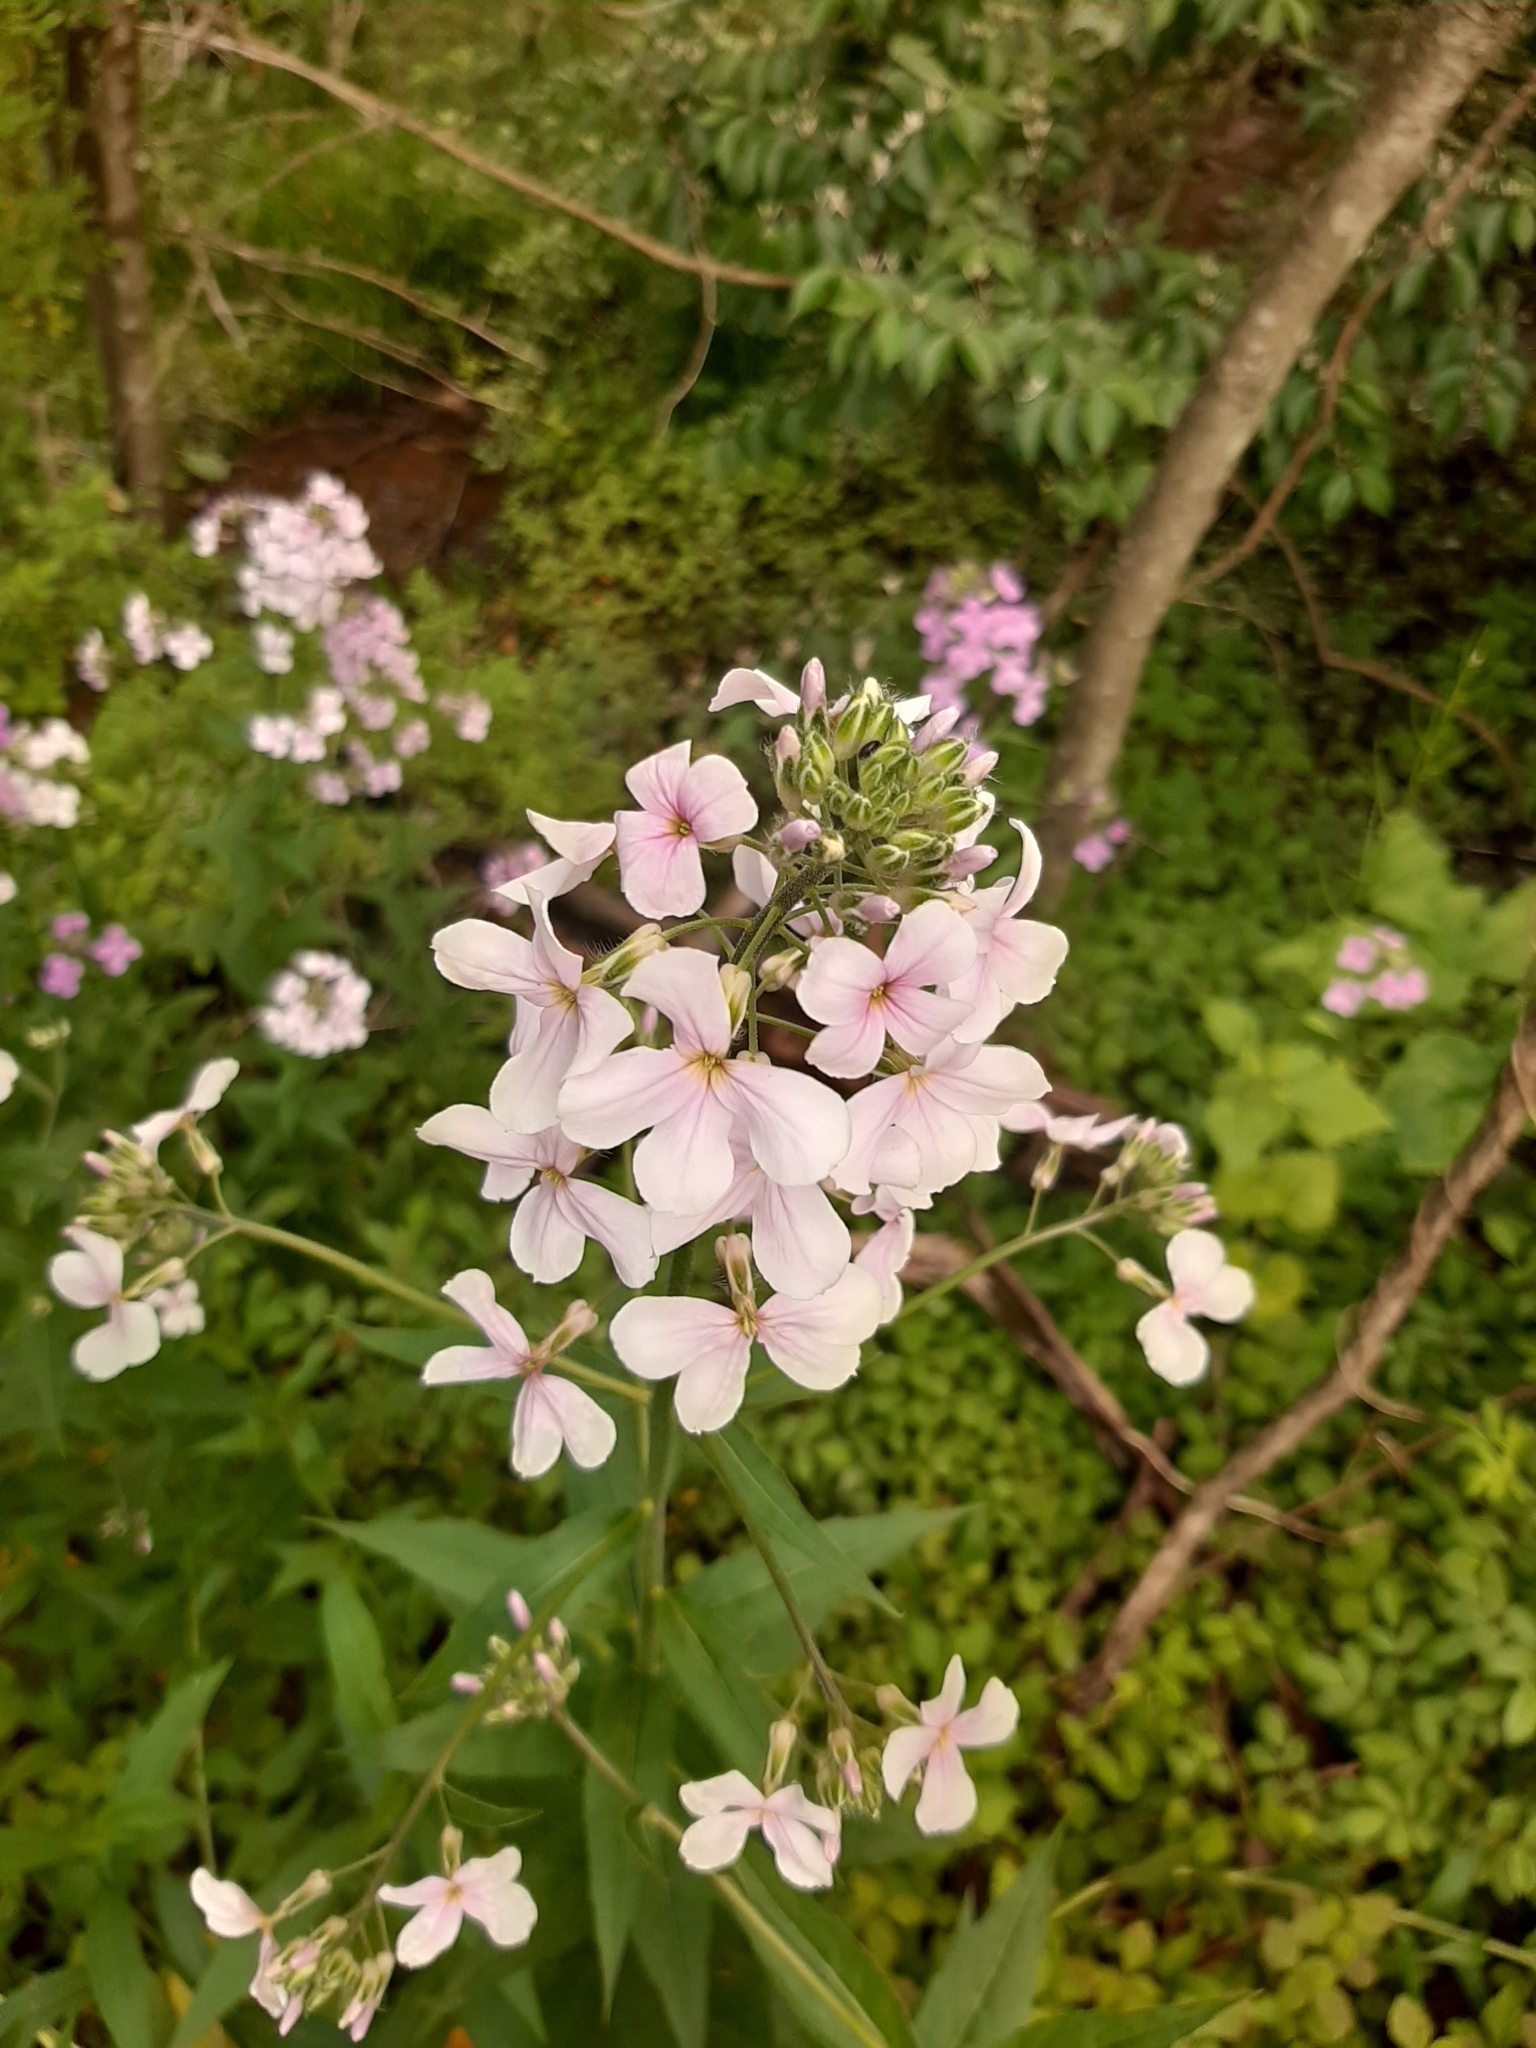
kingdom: Plantae
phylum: Tracheophyta
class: Magnoliopsida
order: Brassicales
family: Brassicaceae
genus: Hesperis
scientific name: Hesperis matronalis
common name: Dame's-violet
